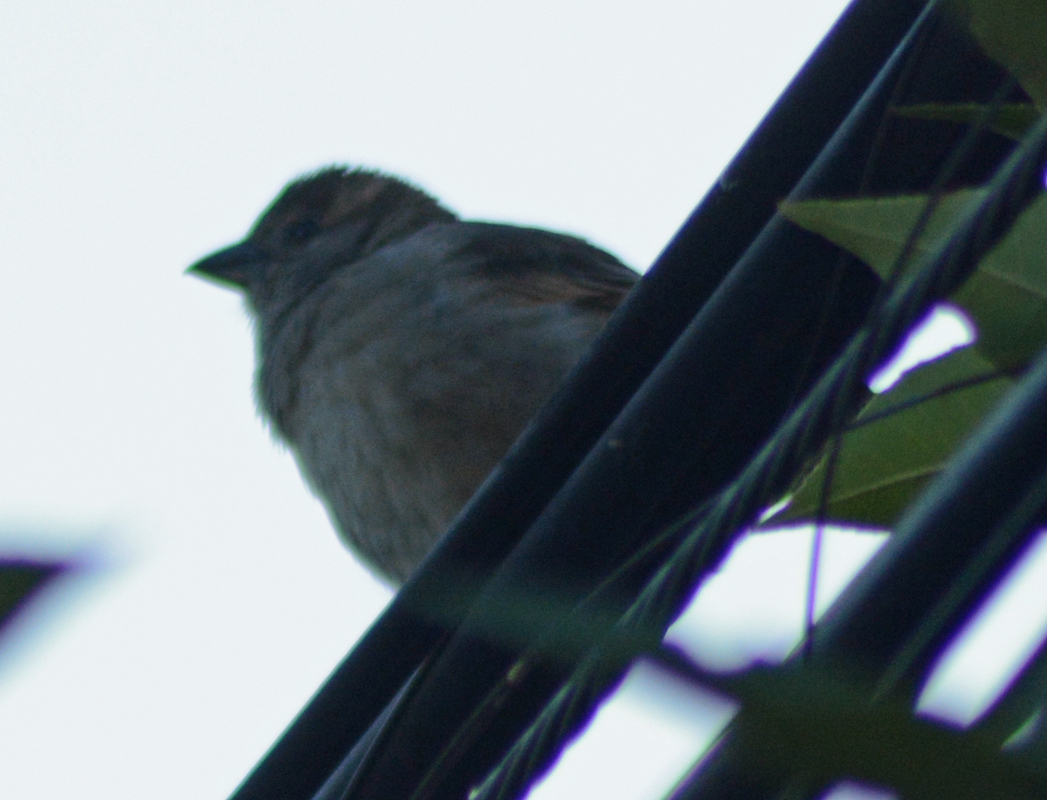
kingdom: Animalia
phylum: Chordata
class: Aves
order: Passeriformes
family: Passeridae
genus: Passer
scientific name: Passer domesticus
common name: House sparrow
